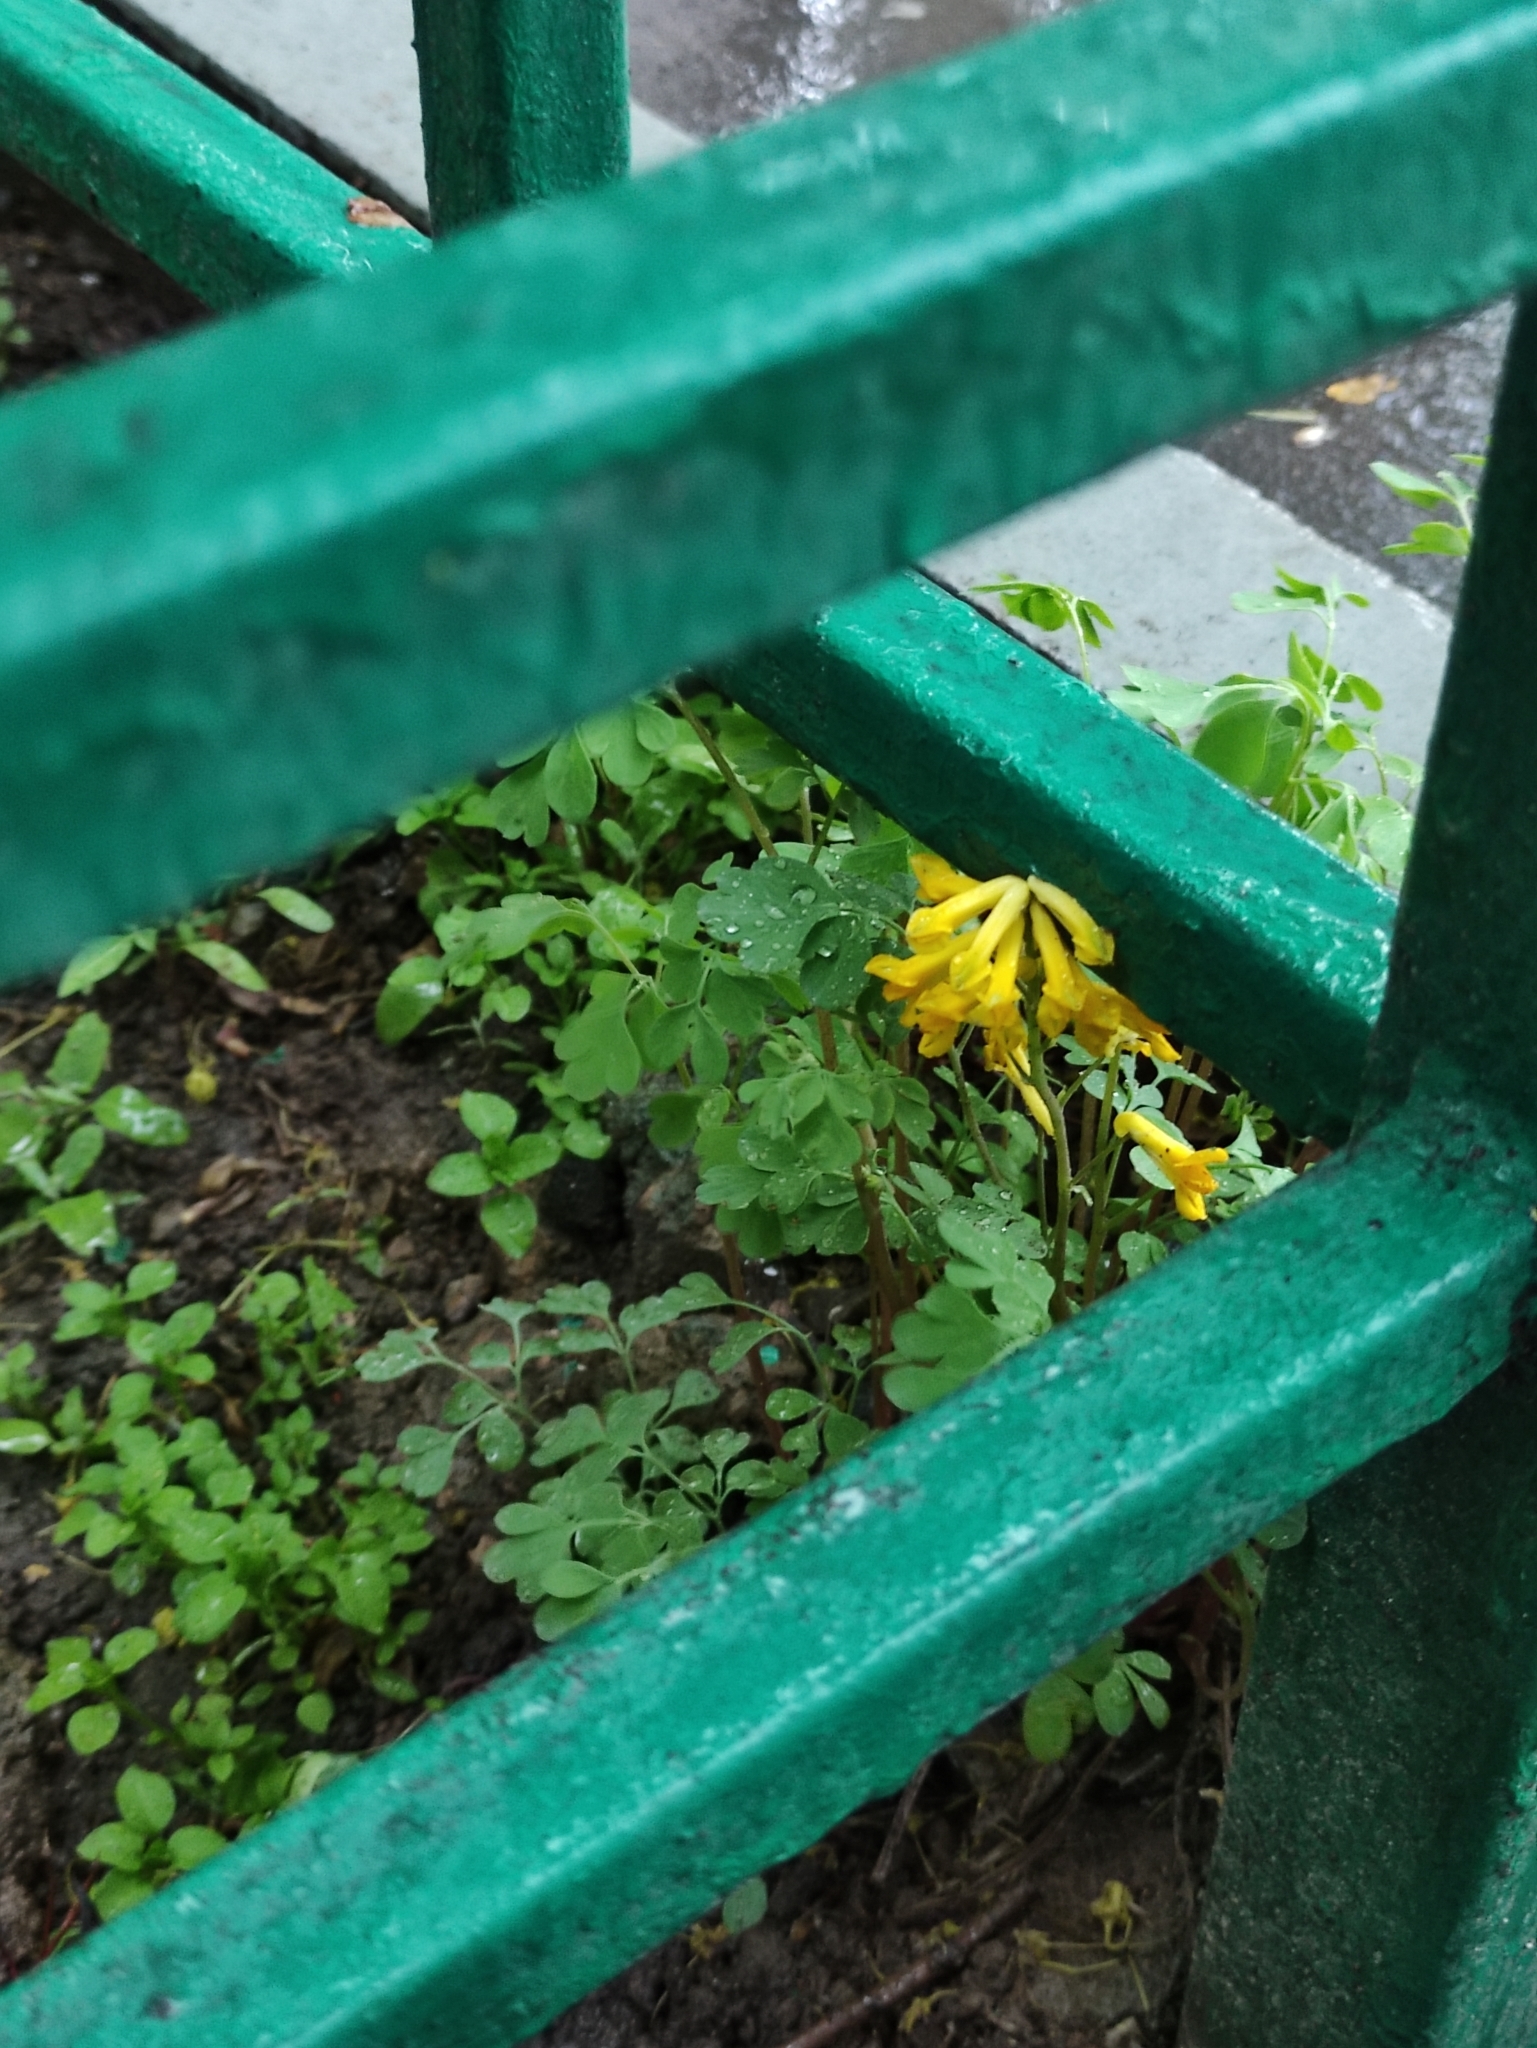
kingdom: Plantae
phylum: Tracheophyta
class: Magnoliopsida
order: Ranunculales
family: Papaveraceae
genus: Pseudofumaria
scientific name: Pseudofumaria lutea
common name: Yellow corydalis
